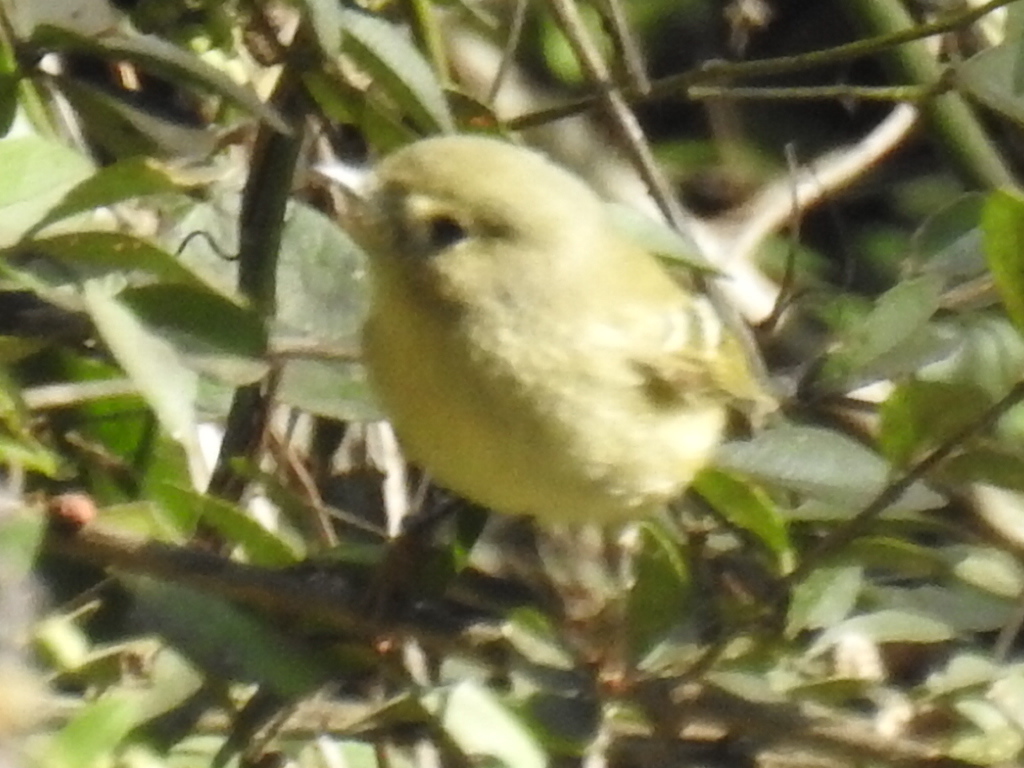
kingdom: Animalia
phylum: Chordata
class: Aves
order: Passeriformes
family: Regulidae
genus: Regulus
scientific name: Regulus calendula
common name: Ruby-crowned kinglet
